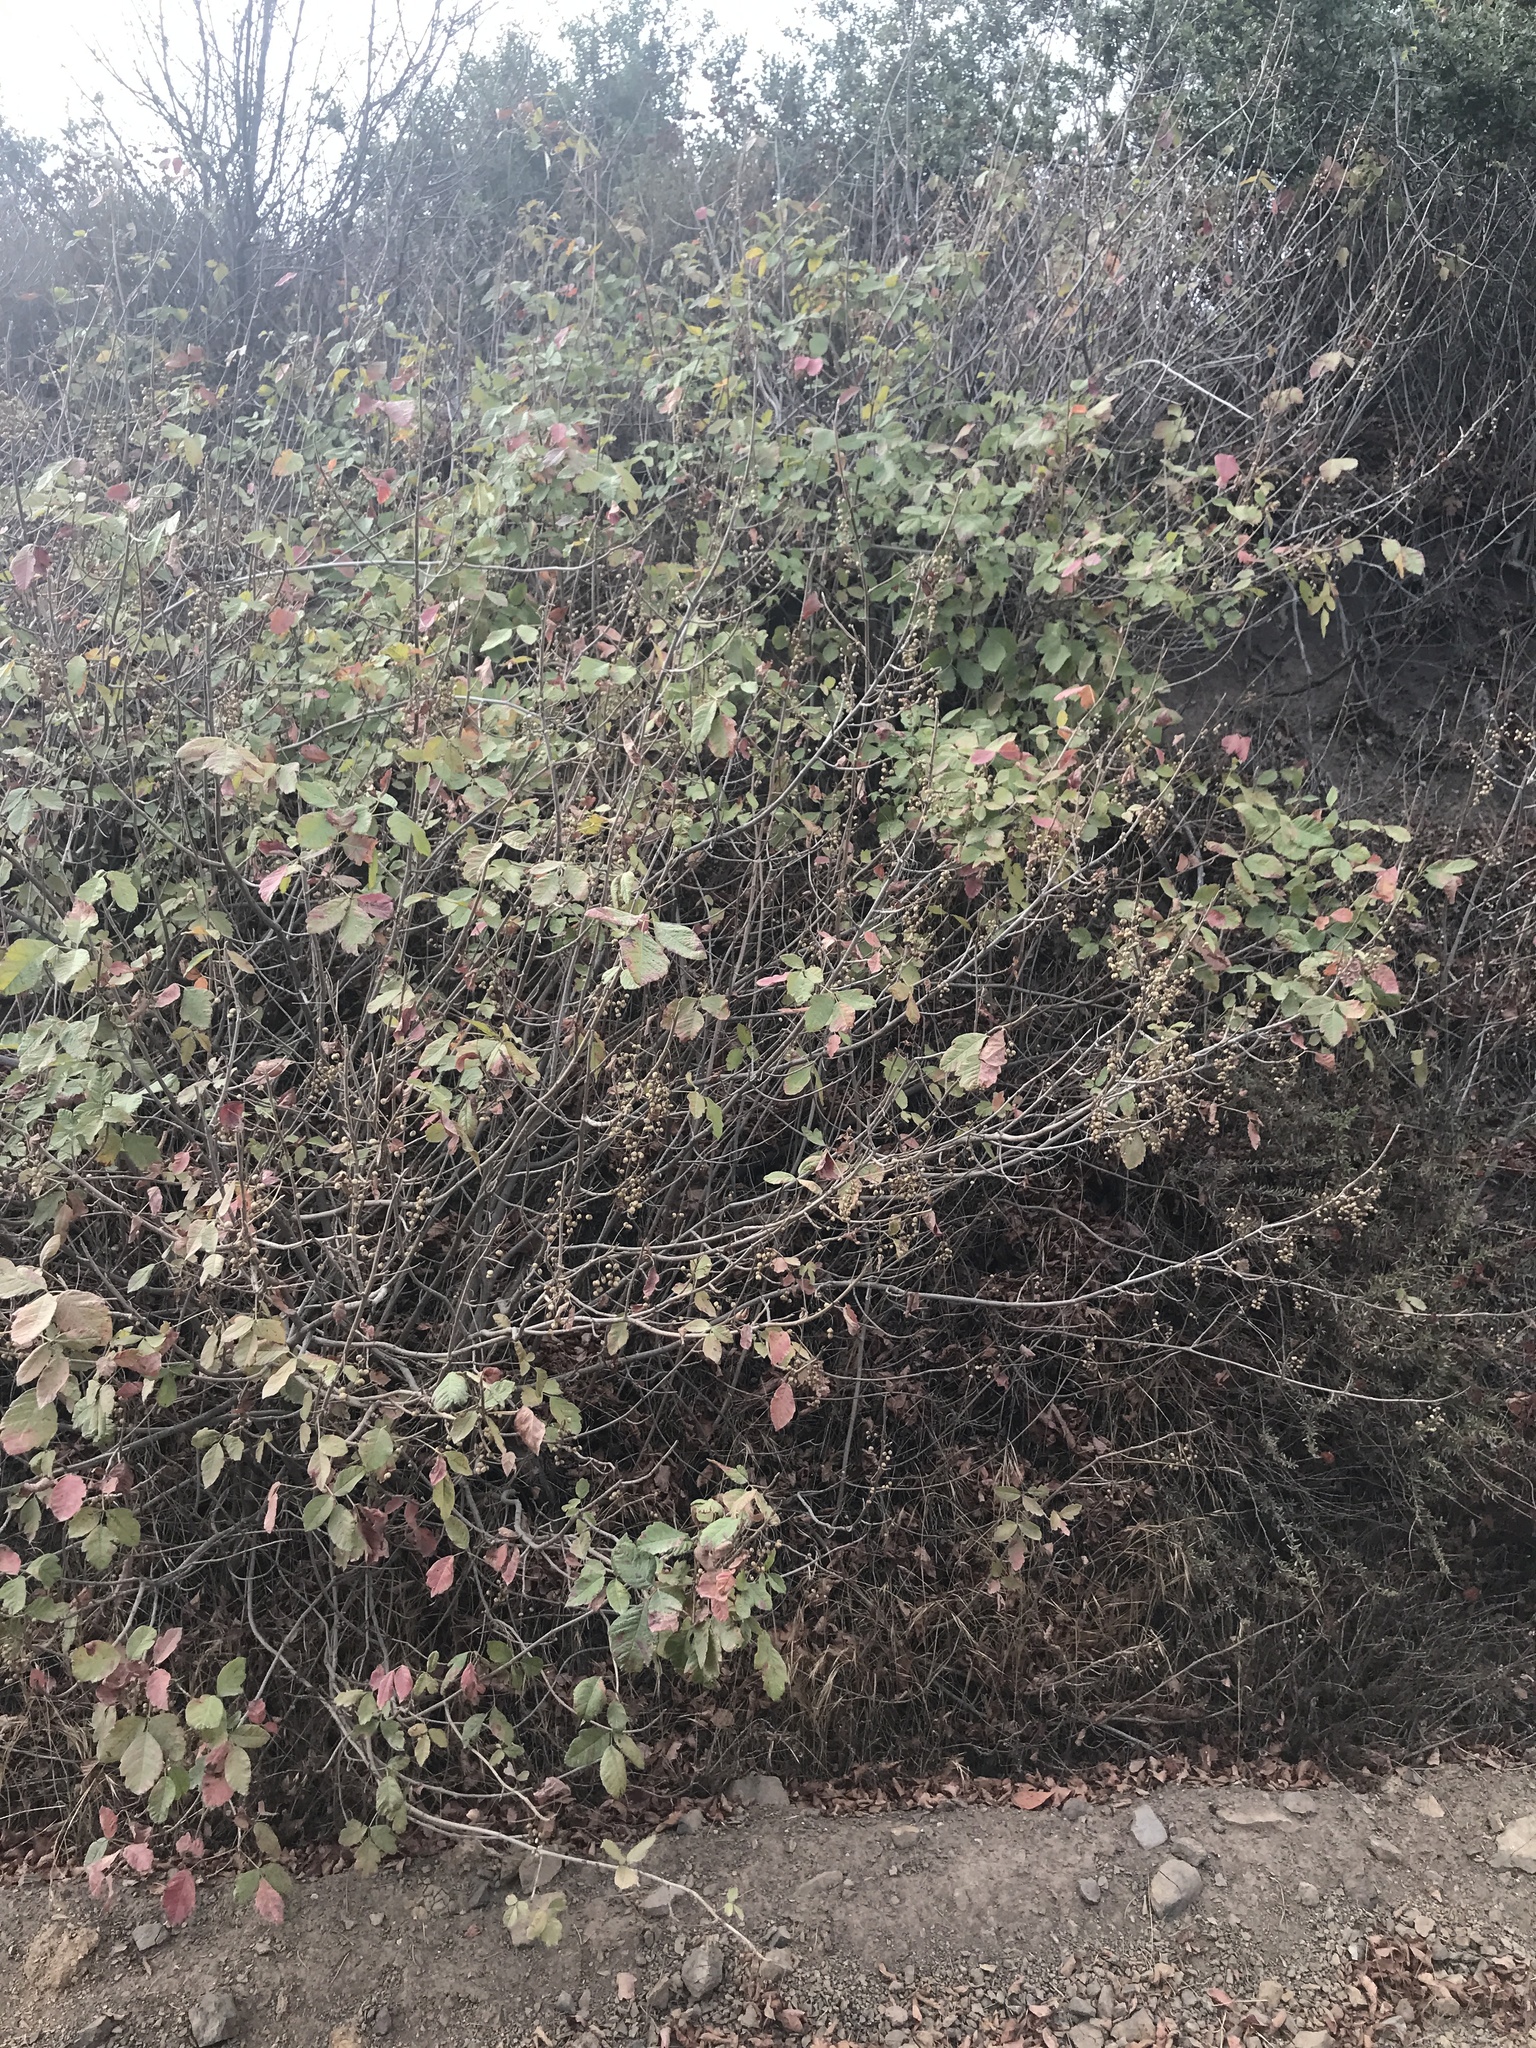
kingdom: Plantae
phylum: Tracheophyta
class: Magnoliopsida
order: Sapindales
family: Anacardiaceae
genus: Toxicodendron
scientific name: Toxicodendron diversilobum
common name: Pacific poison-oak
